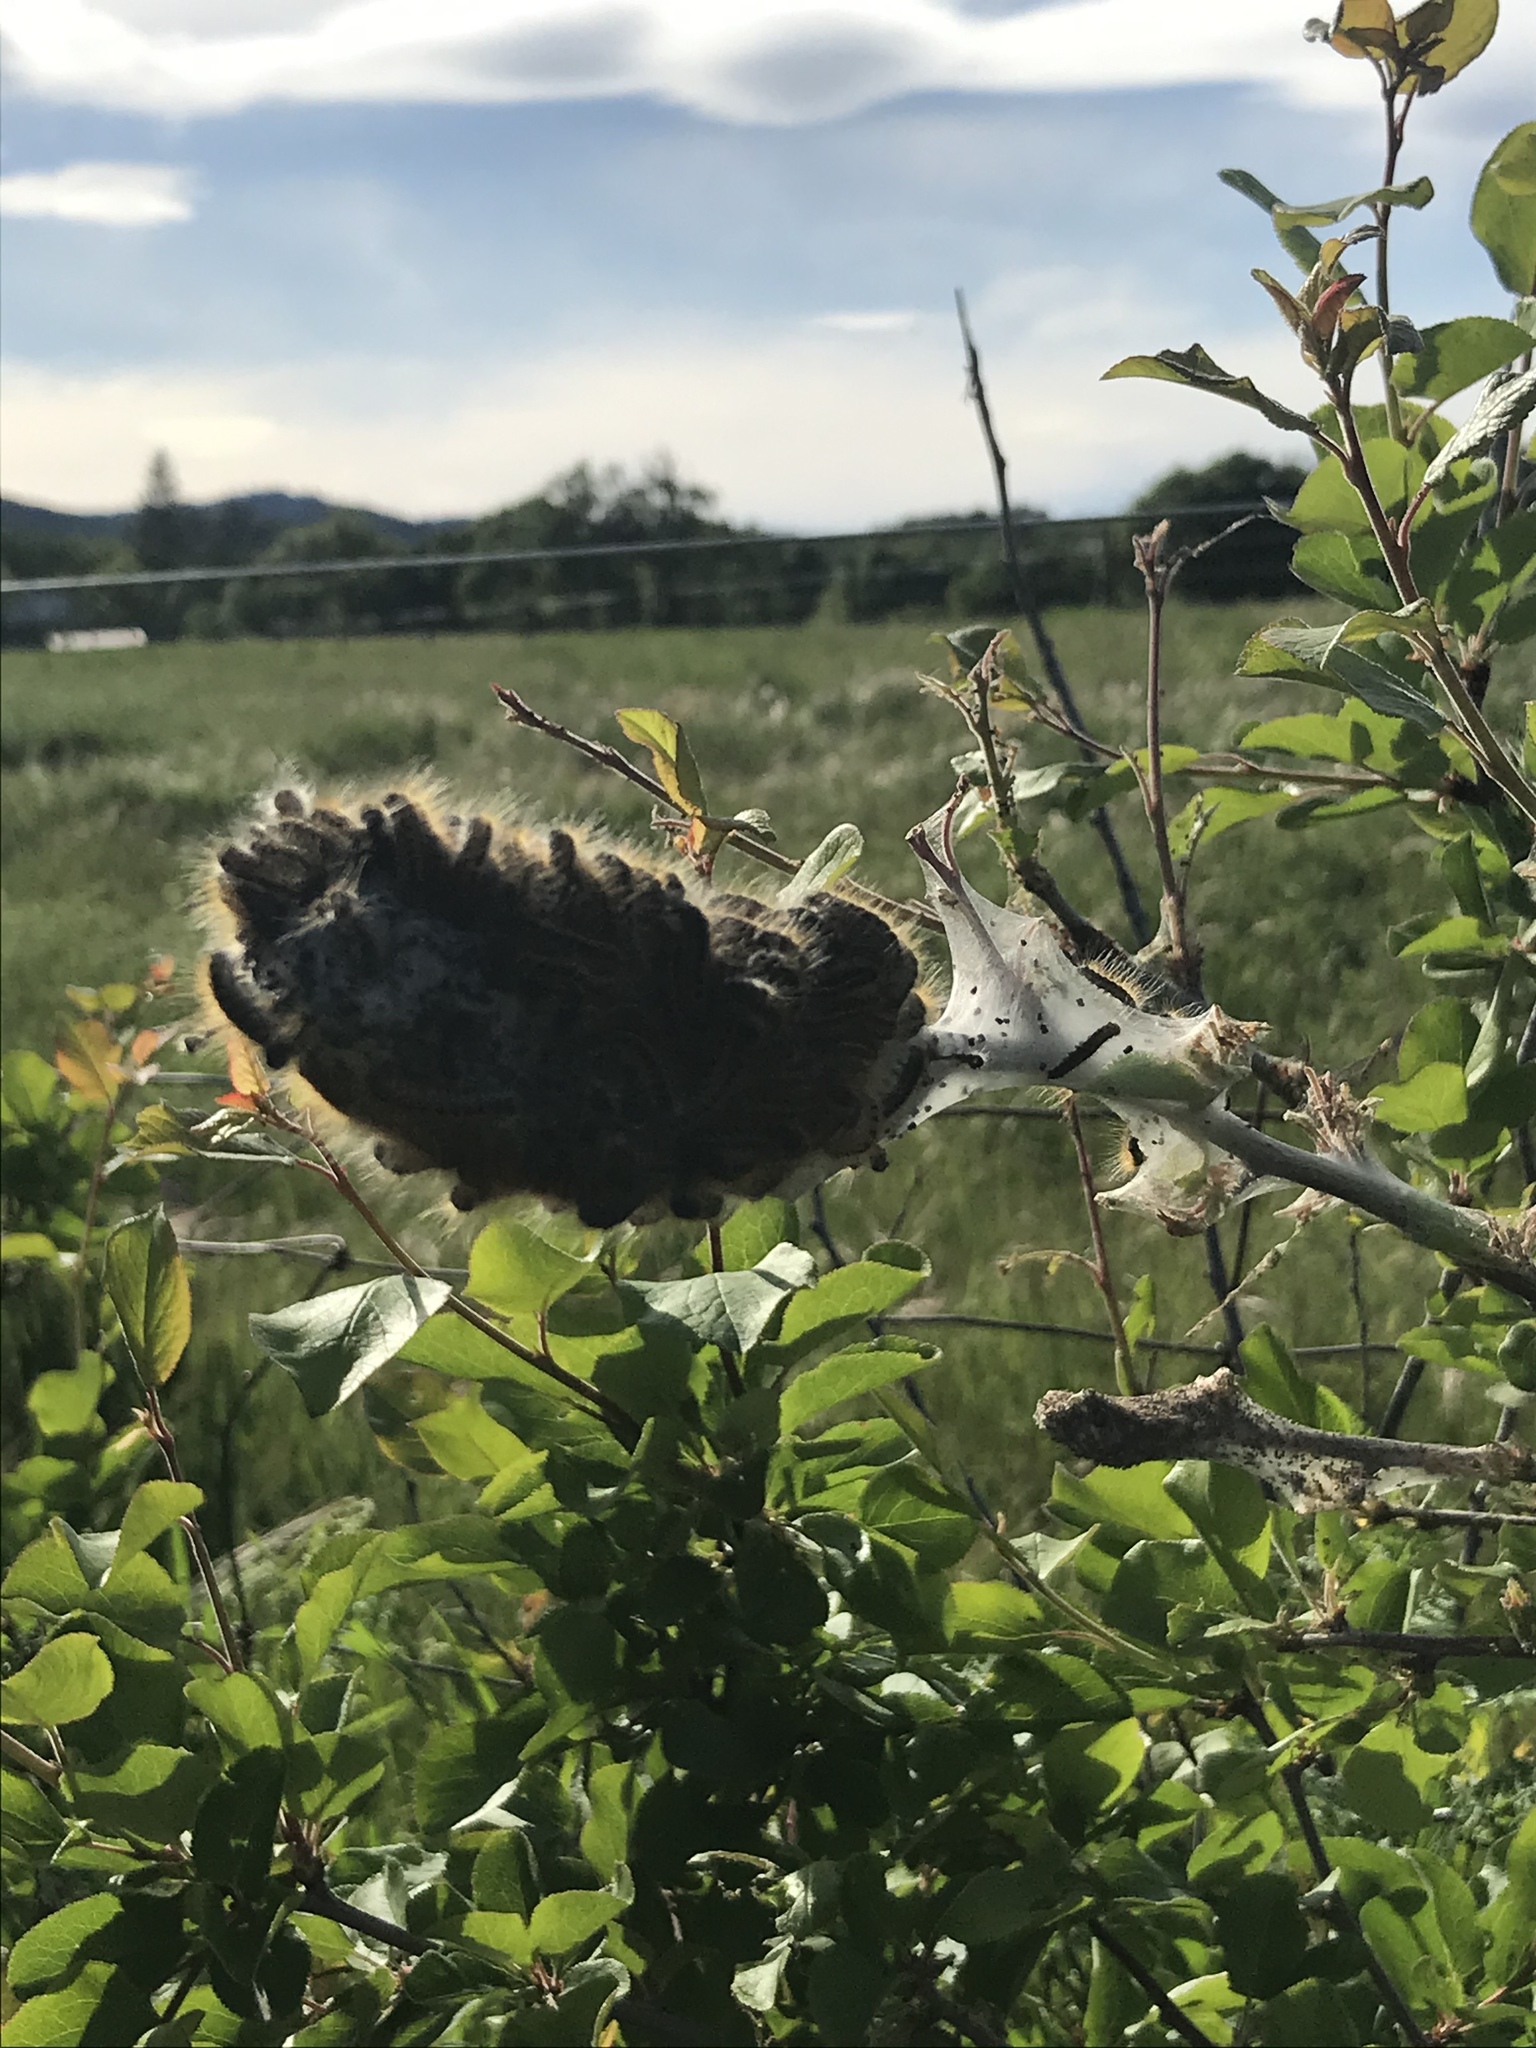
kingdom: Animalia
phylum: Arthropoda
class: Insecta
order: Lepidoptera
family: Lasiocampidae
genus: Malacosoma
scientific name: Malacosoma californica
